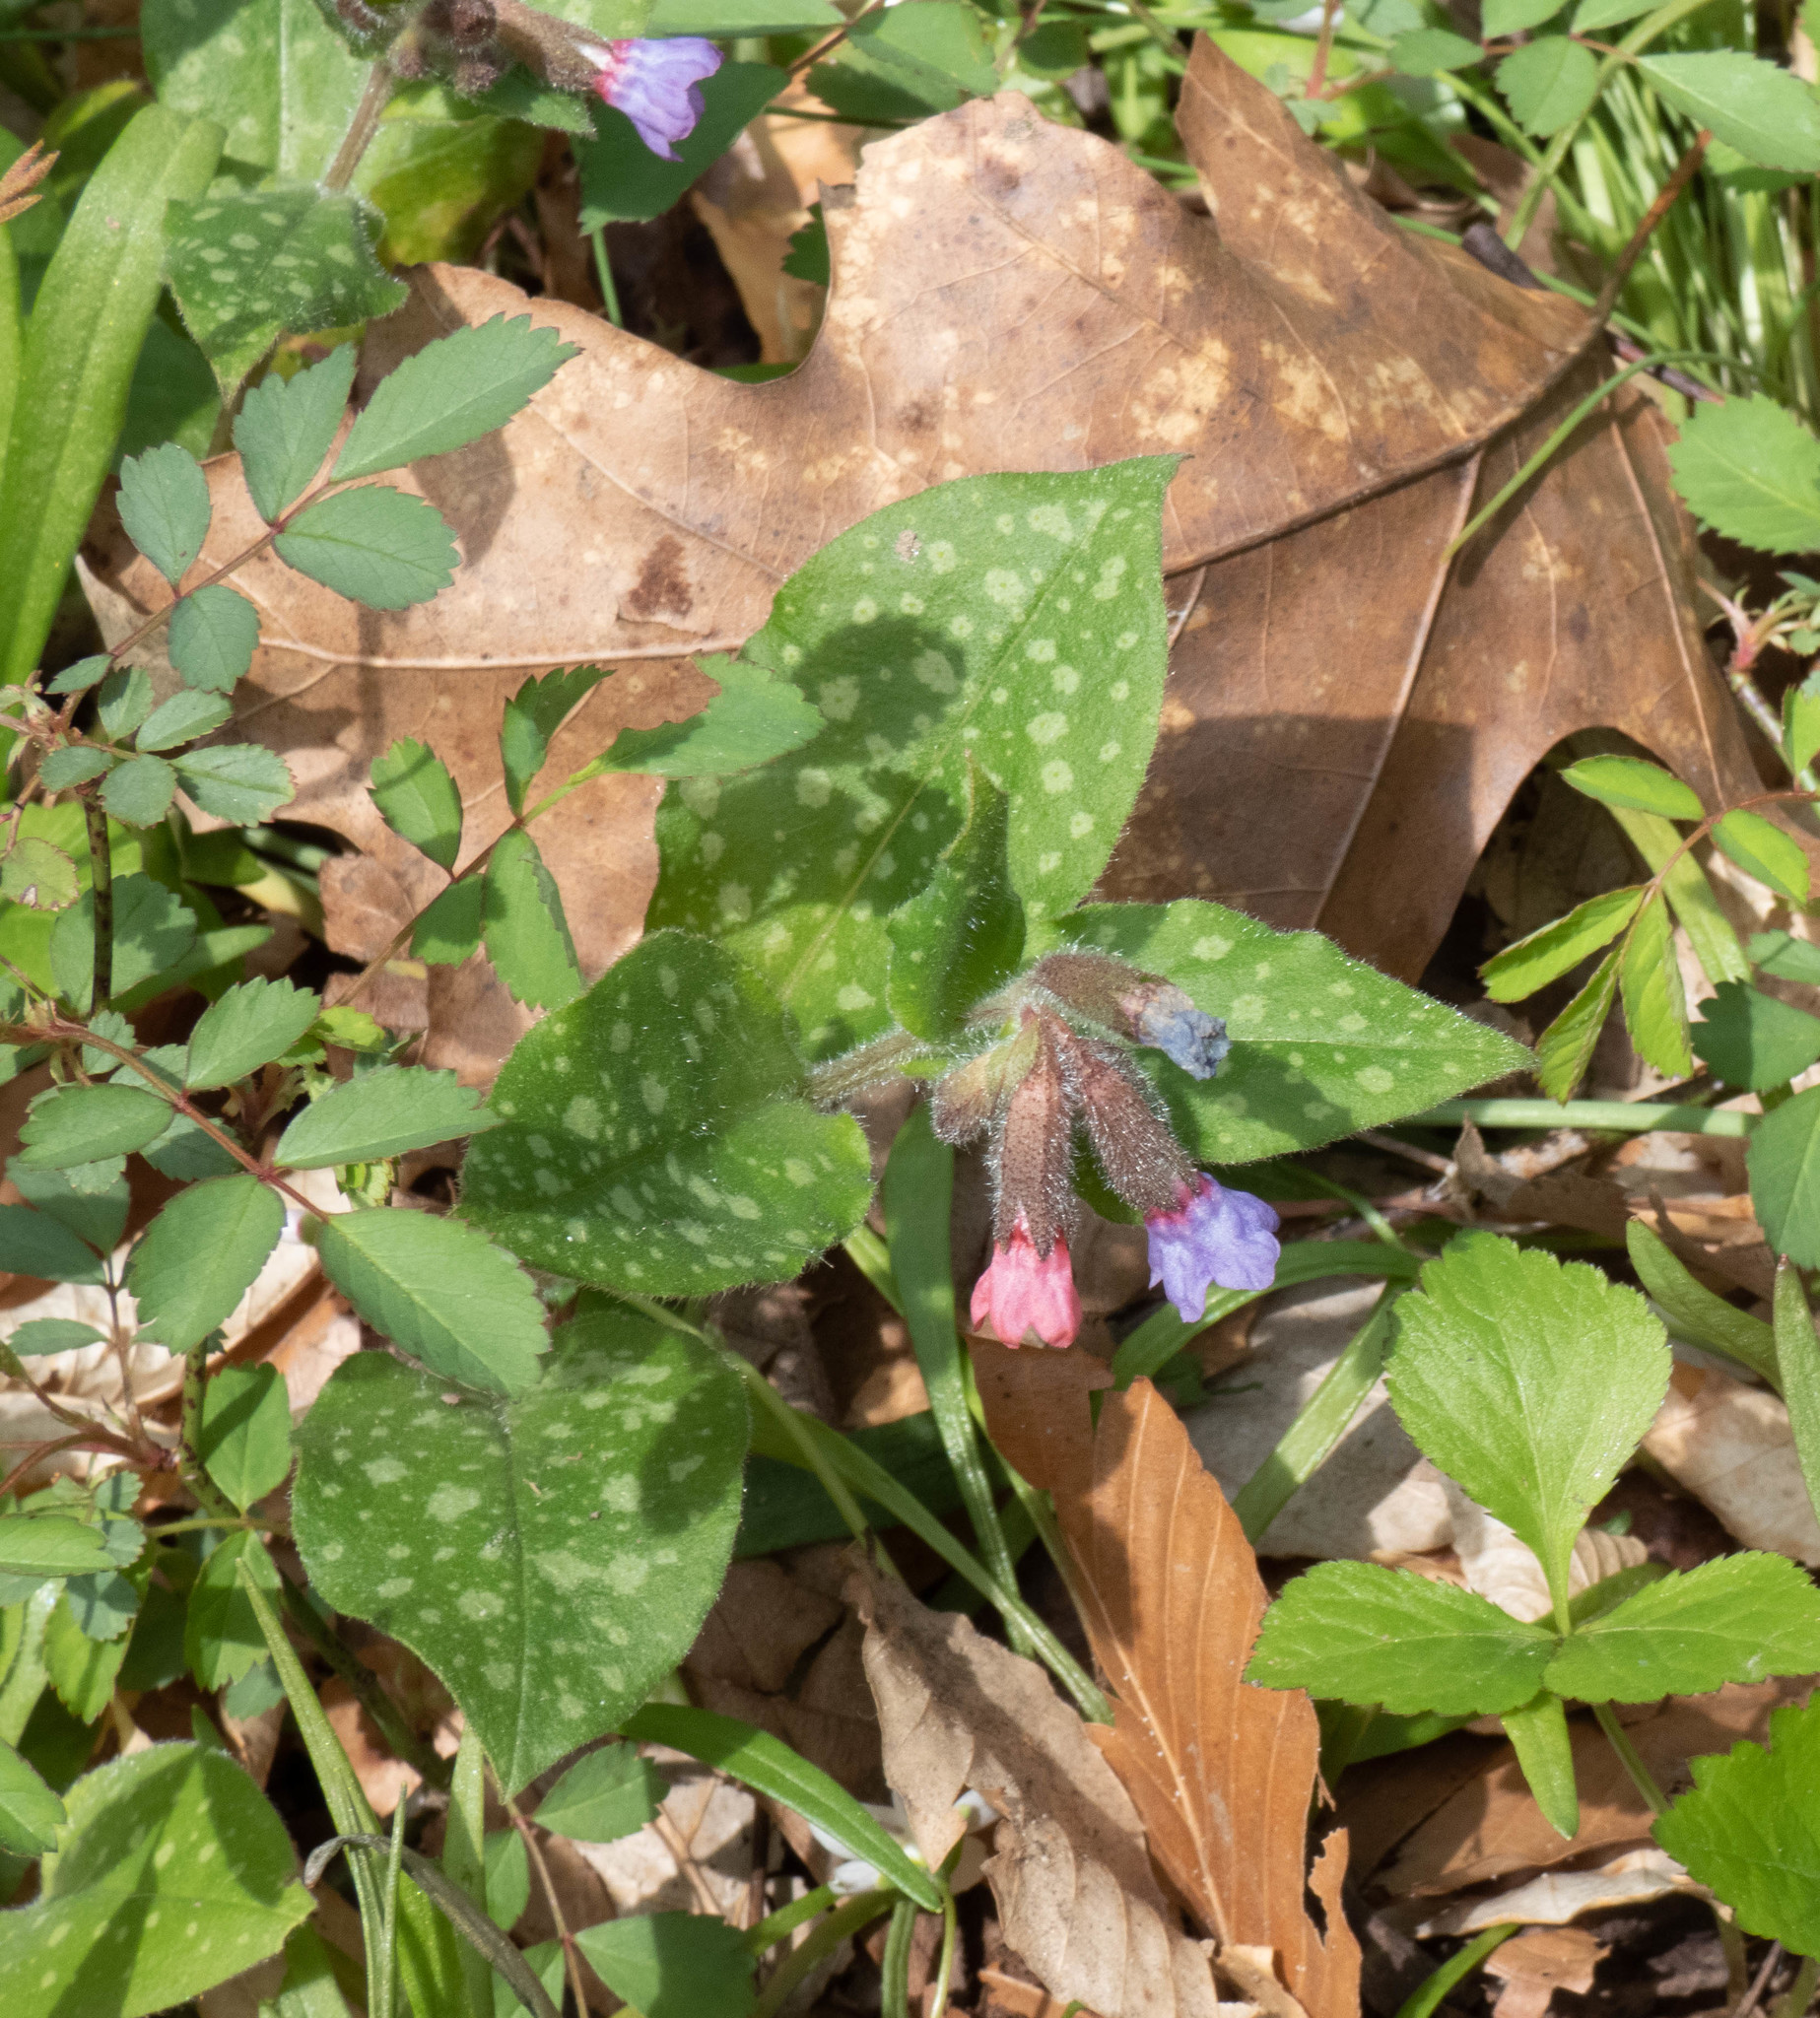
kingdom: Plantae
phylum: Tracheophyta
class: Magnoliopsida
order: Boraginales
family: Boraginaceae
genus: Pulmonaria
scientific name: Pulmonaria officinalis
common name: Lungwort
